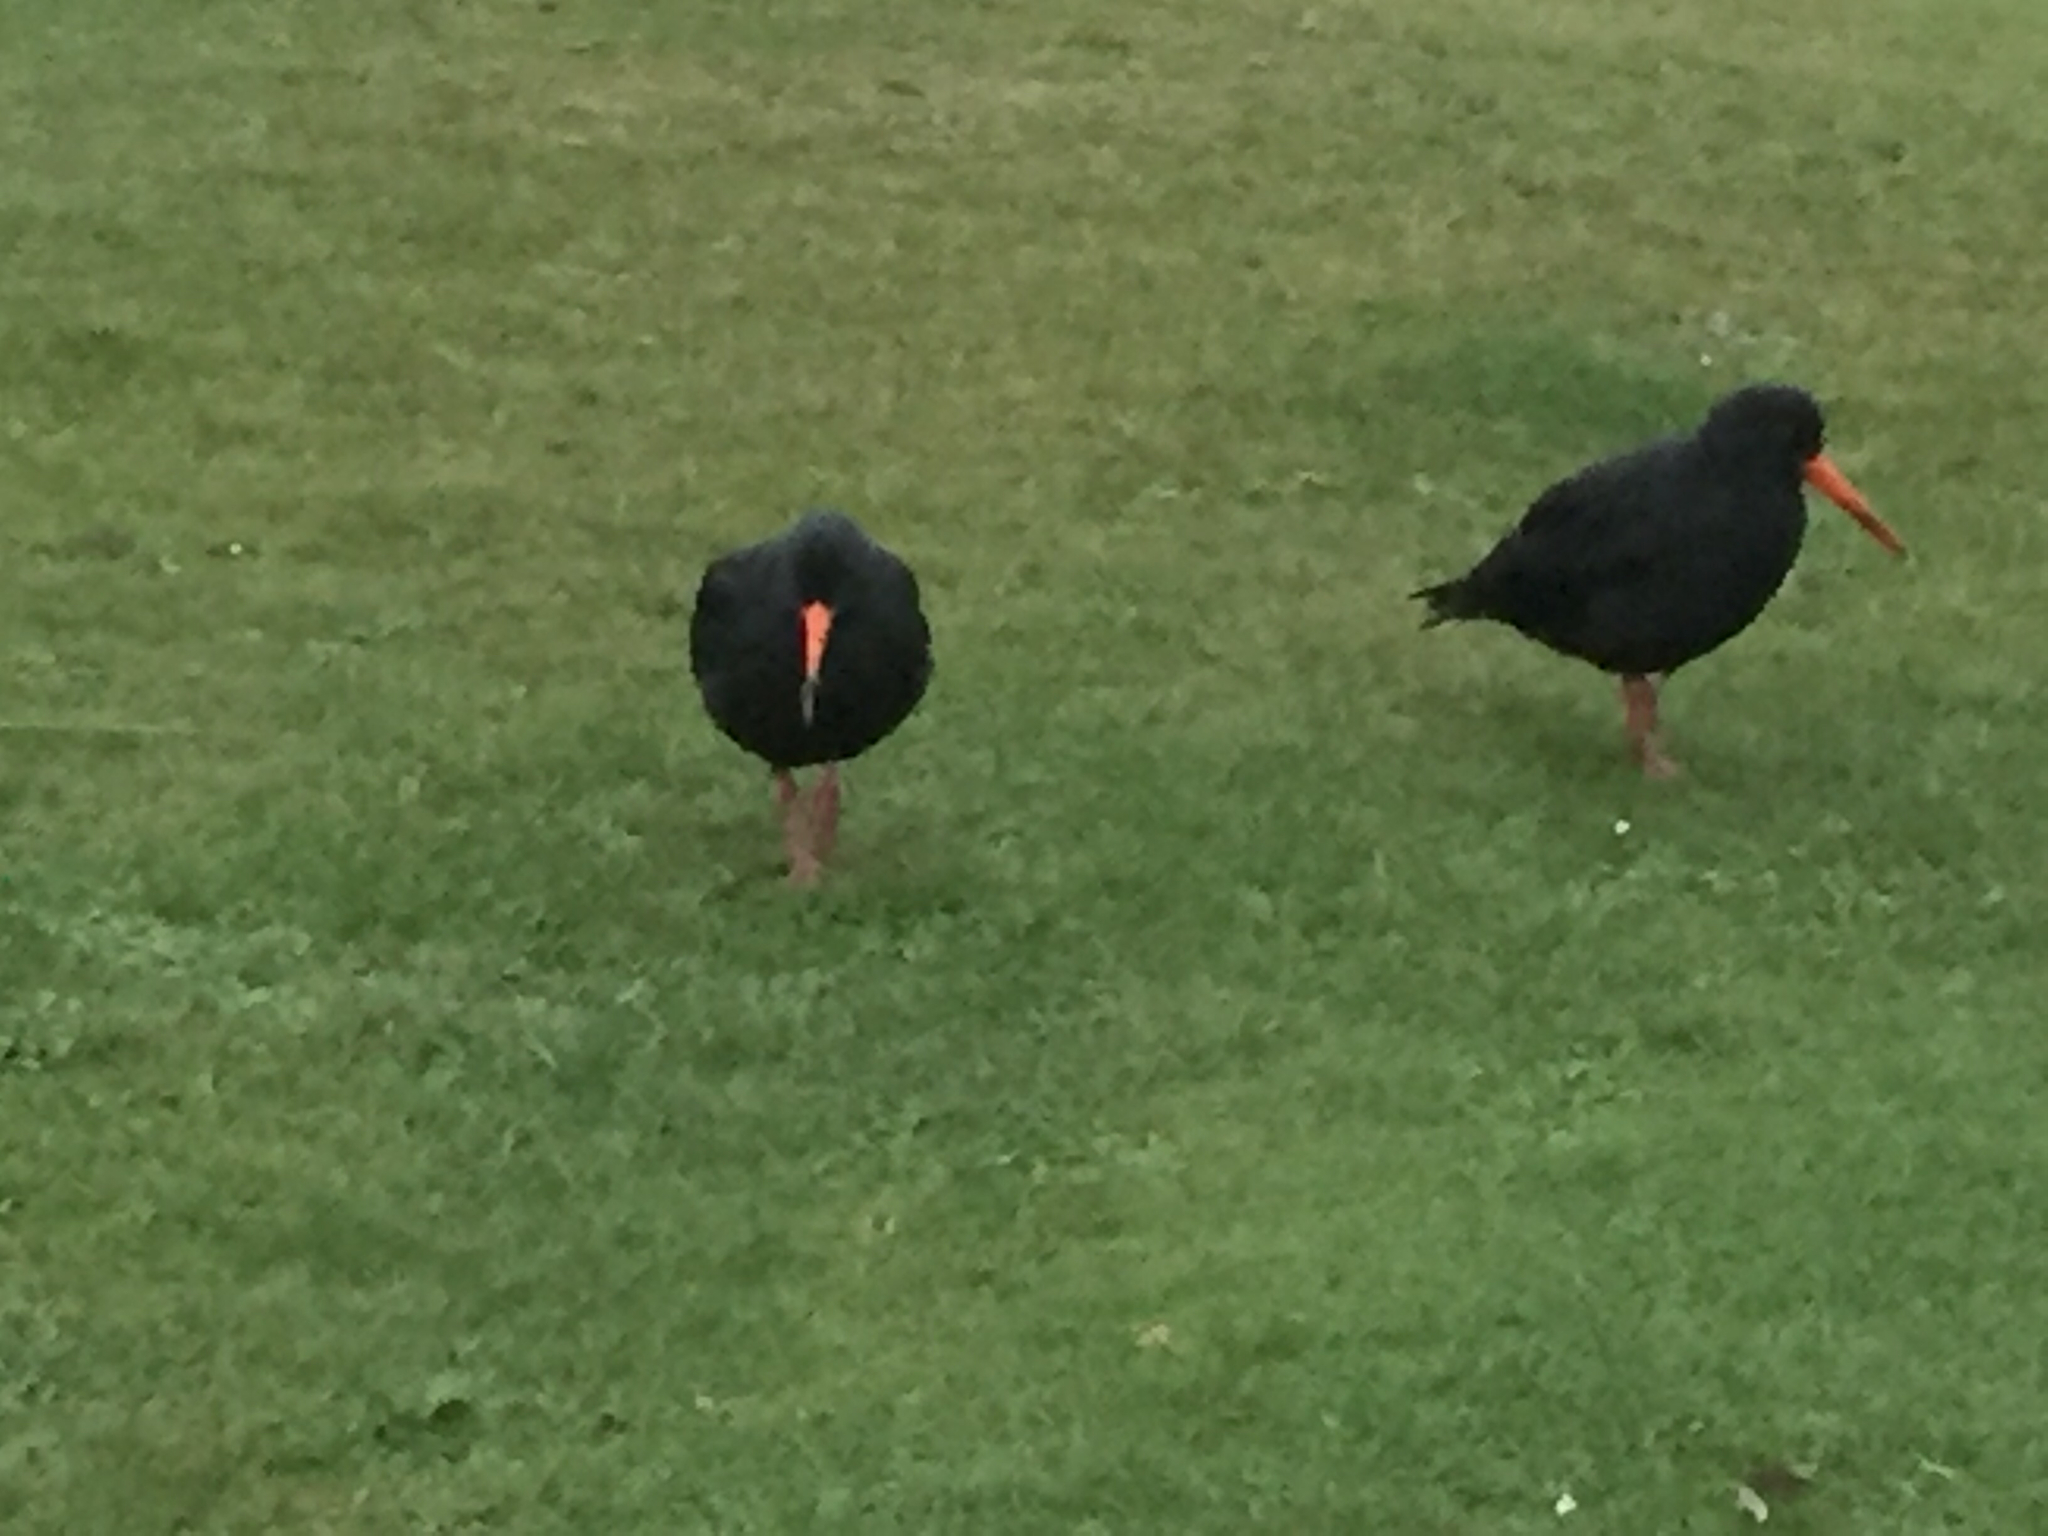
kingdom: Animalia
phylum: Chordata
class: Aves
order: Charadriiformes
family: Haematopodidae
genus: Haematopus
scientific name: Haematopus unicolor
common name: Variable oystercatcher
